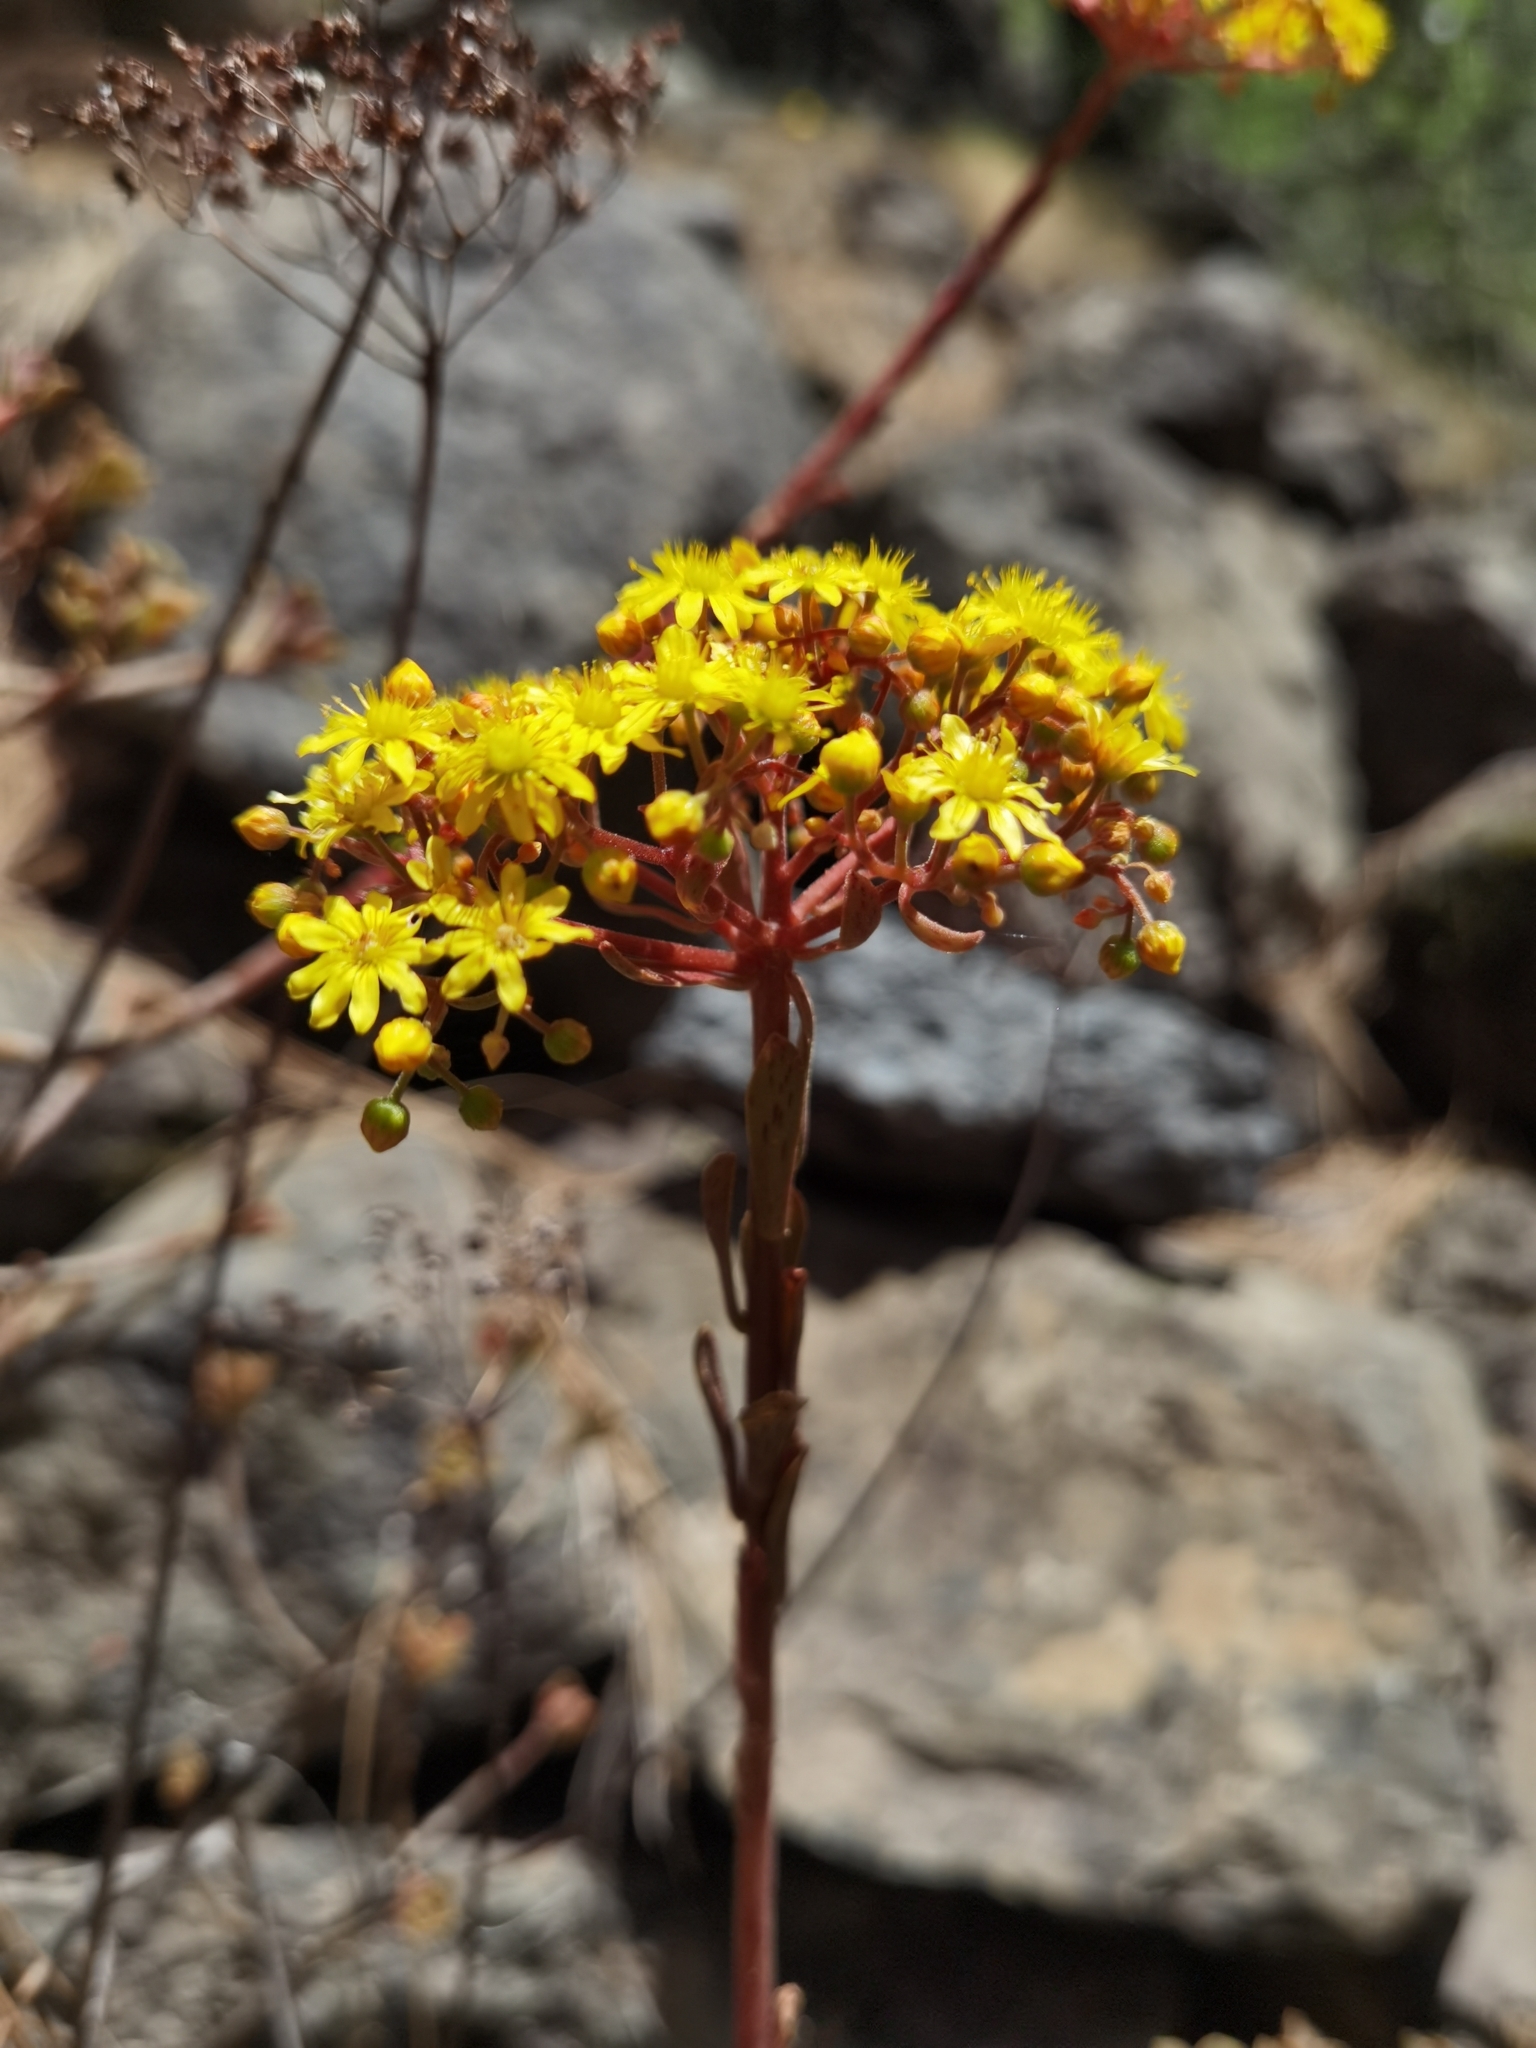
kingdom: Plantae
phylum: Tracheophyta
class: Magnoliopsida
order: Saxifragales
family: Crassulaceae
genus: Aeonium
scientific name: Aeonium spathulatum
